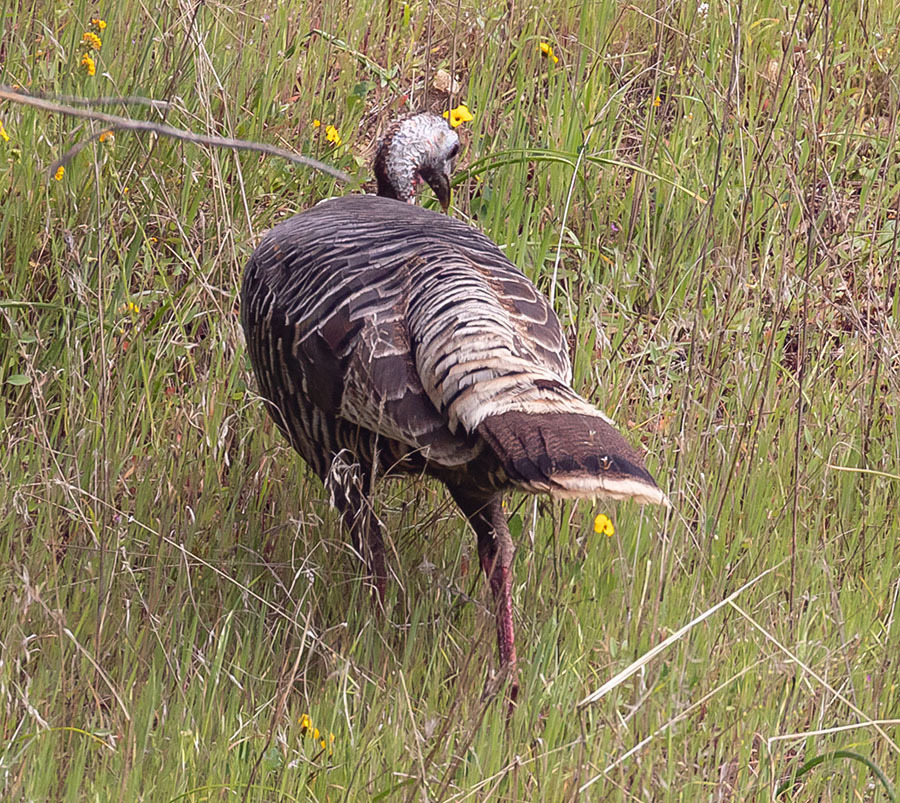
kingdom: Animalia
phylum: Chordata
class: Aves
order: Galliformes
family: Phasianidae
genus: Meleagris
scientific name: Meleagris gallopavo
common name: Wild turkey
